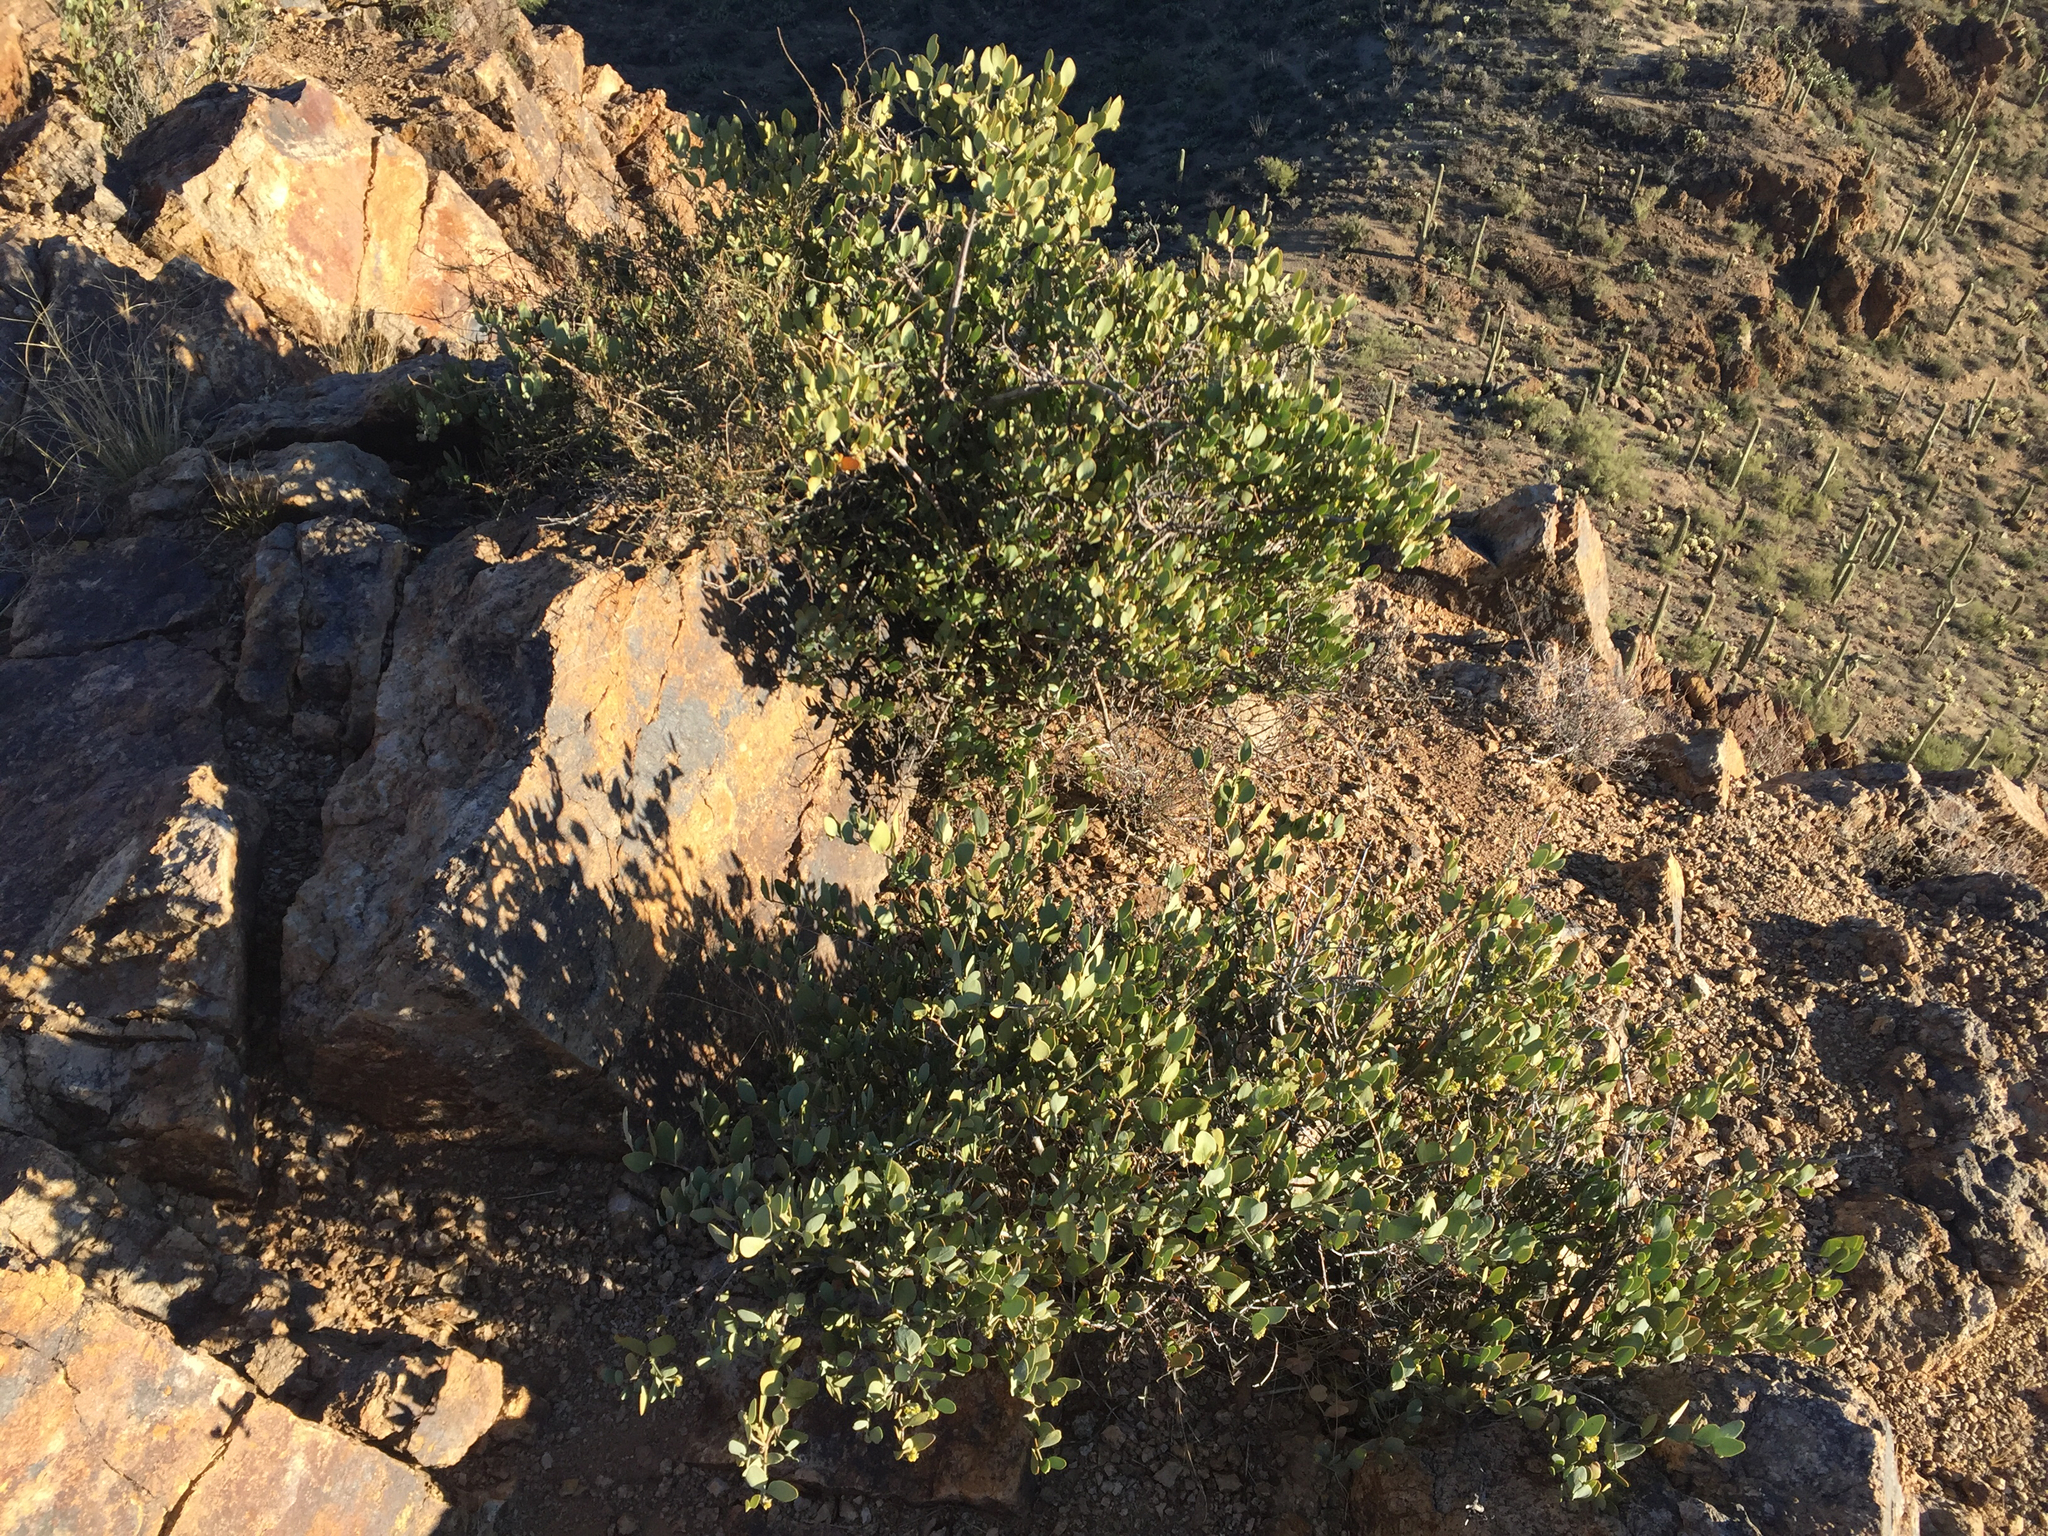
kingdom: Plantae
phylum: Tracheophyta
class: Magnoliopsida
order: Caryophyllales
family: Simmondsiaceae
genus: Simmondsia
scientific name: Simmondsia chinensis
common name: Jojoba
